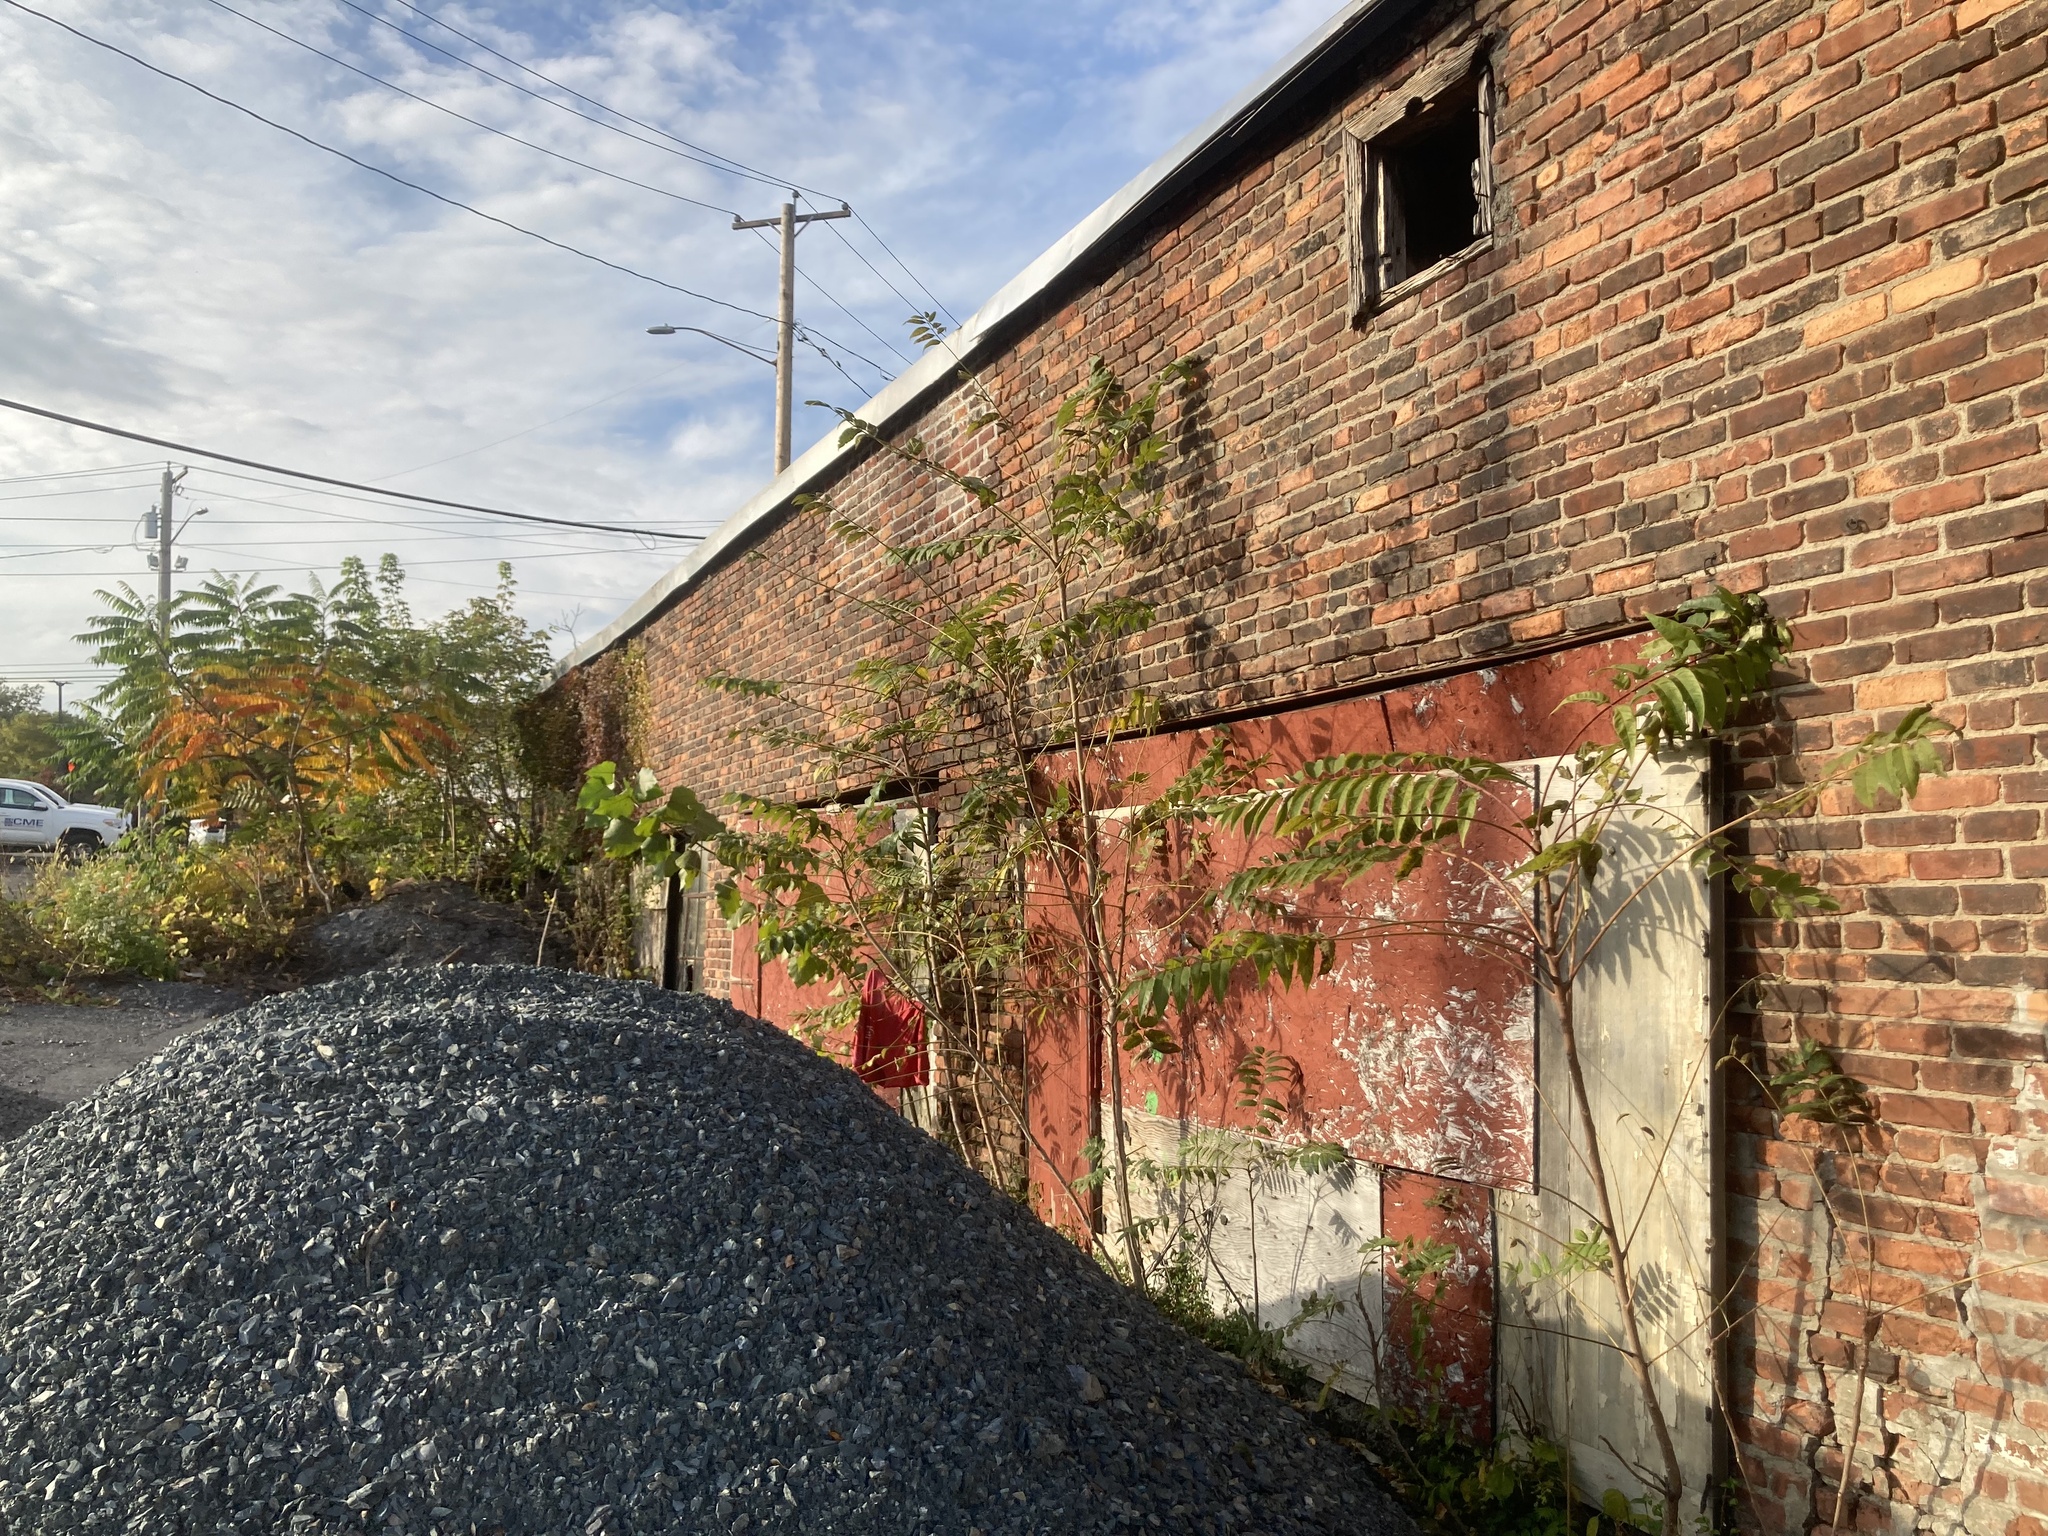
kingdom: Plantae
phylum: Tracheophyta
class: Magnoliopsida
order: Sapindales
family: Simaroubaceae
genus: Ailanthus
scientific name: Ailanthus altissima
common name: Tree-of-heaven
